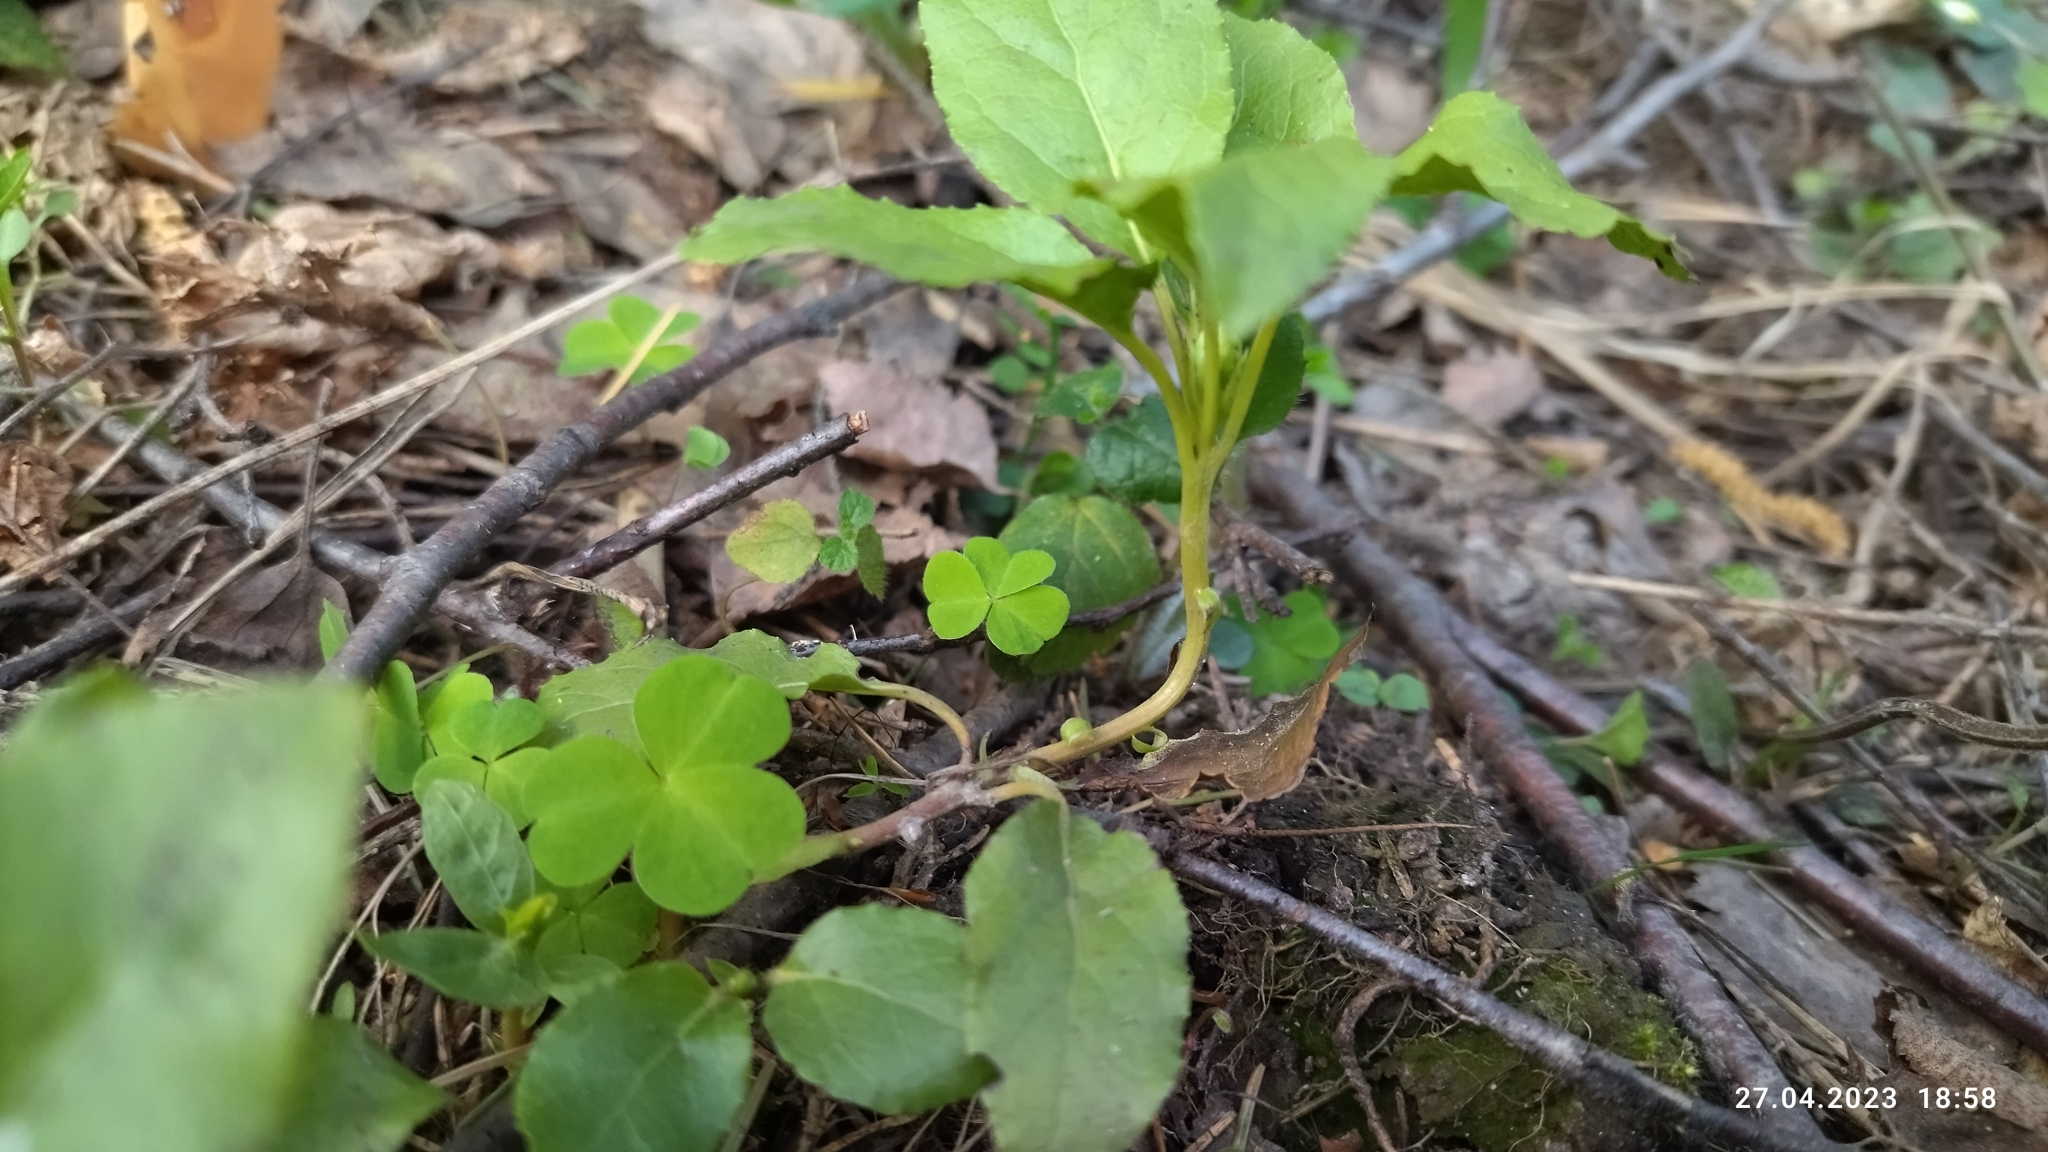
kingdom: Plantae
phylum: Tracheophyta
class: Magnoliopsida
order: Ericales
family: Ericaceae
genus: Orthilia
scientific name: Orthilia secunda
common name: One-sided orthilia
